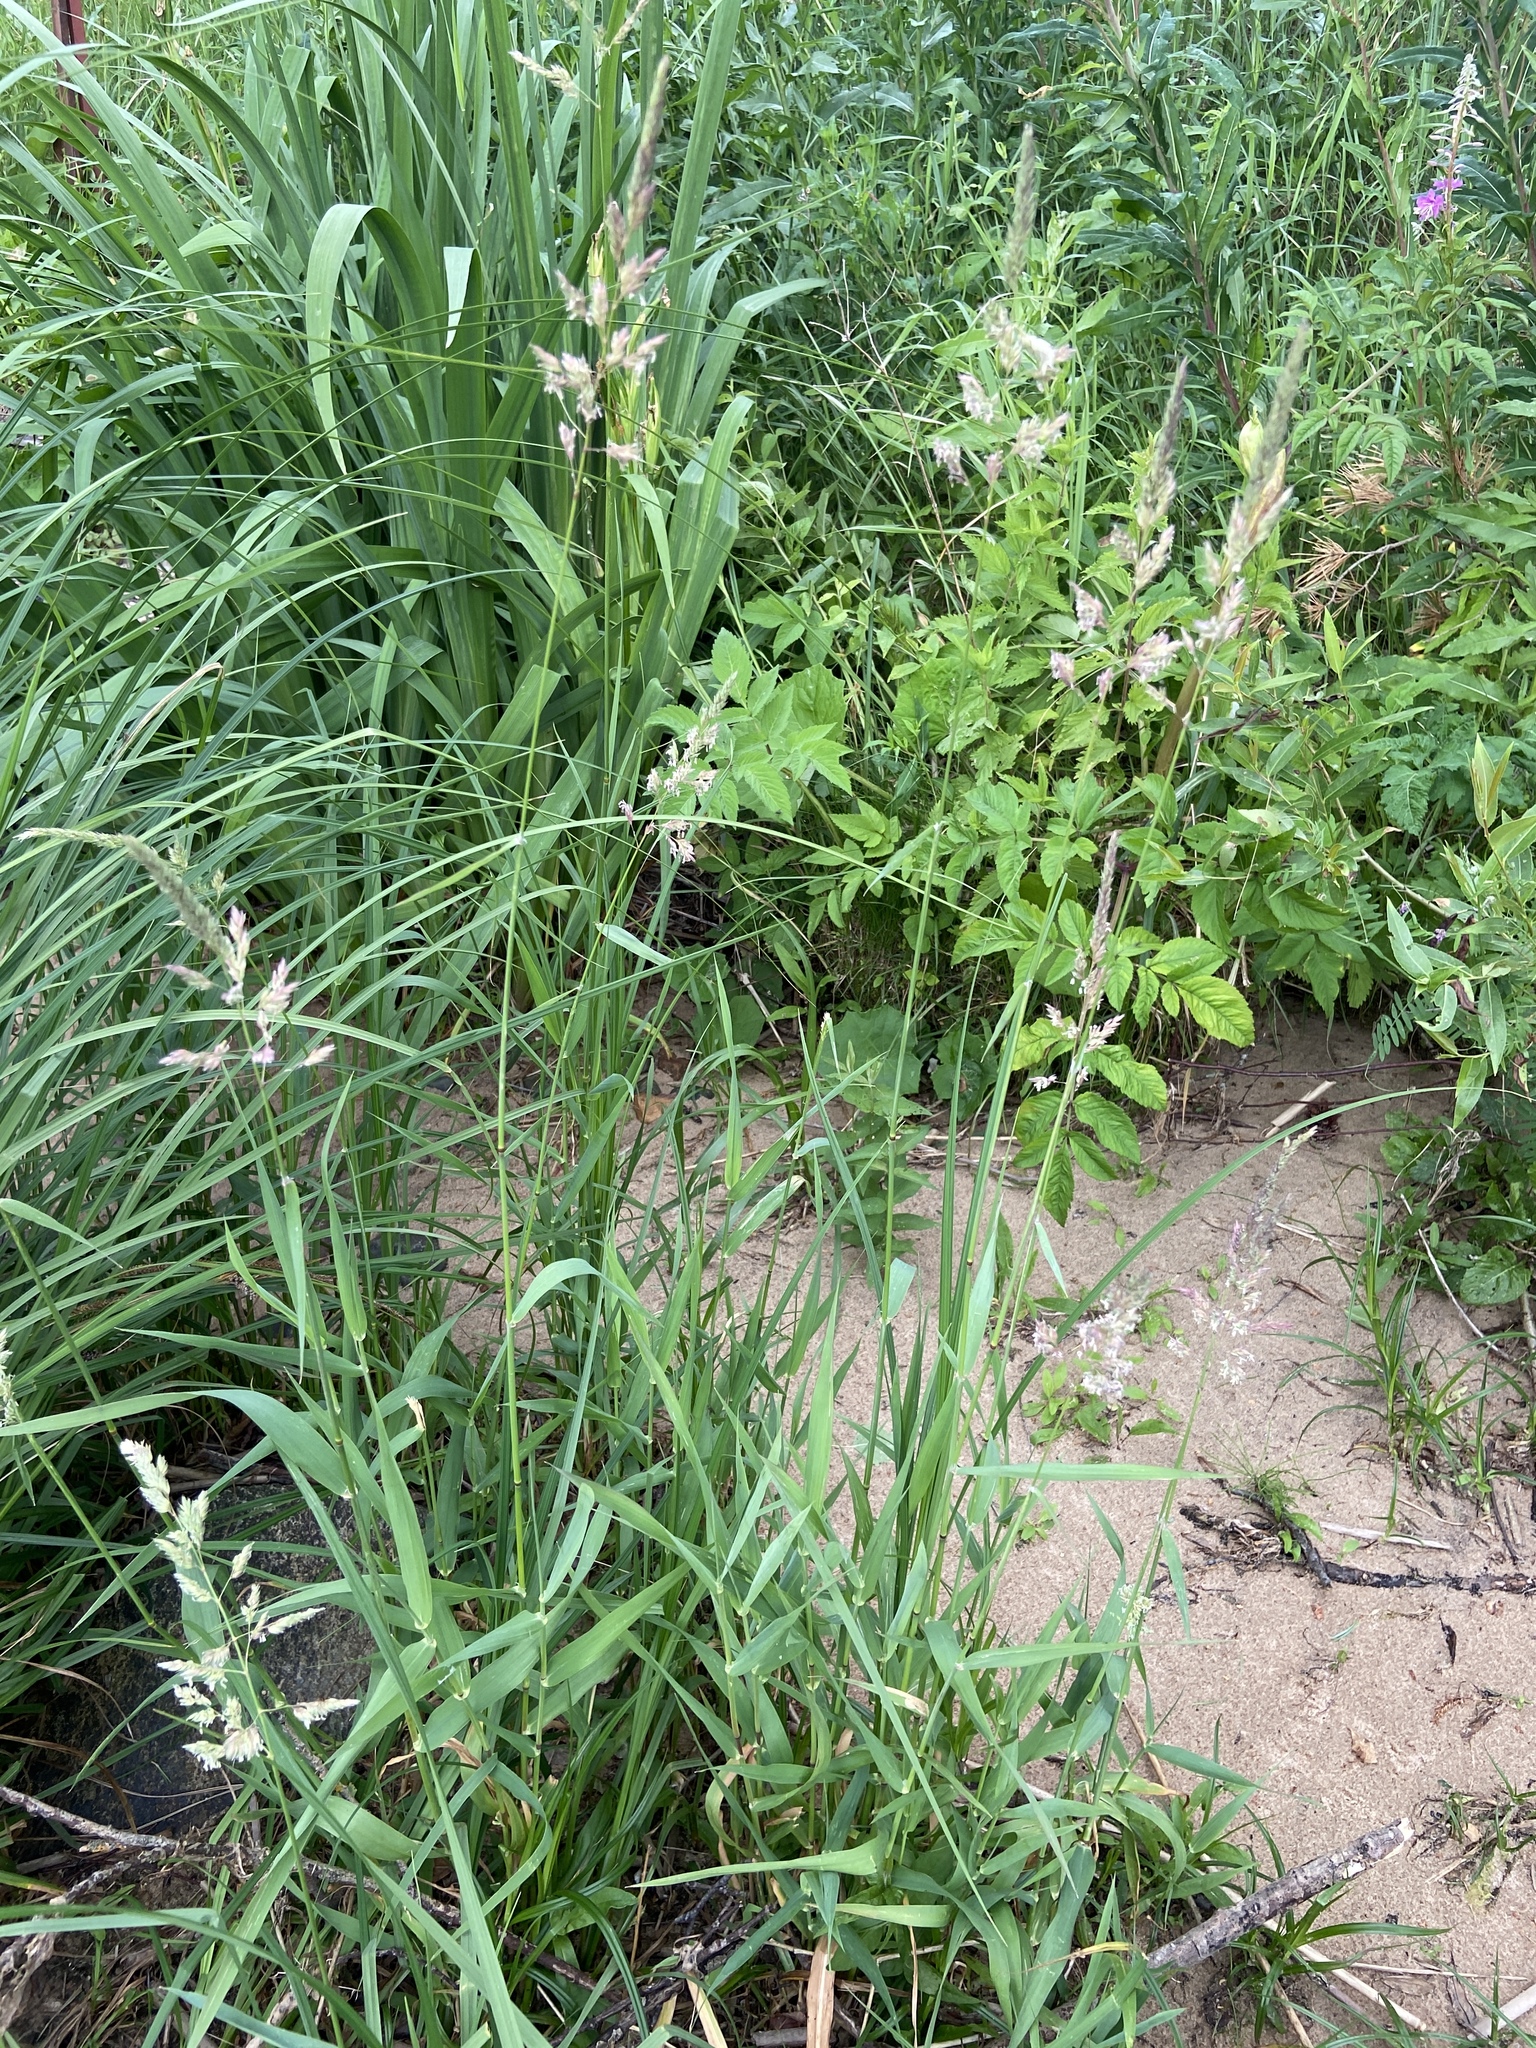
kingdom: Plantae
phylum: Tracheophyta
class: Liliopsida
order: Poales
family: Poaceae
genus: Phalaris
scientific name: Phalaris arundinacea
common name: Reed canary-grass
